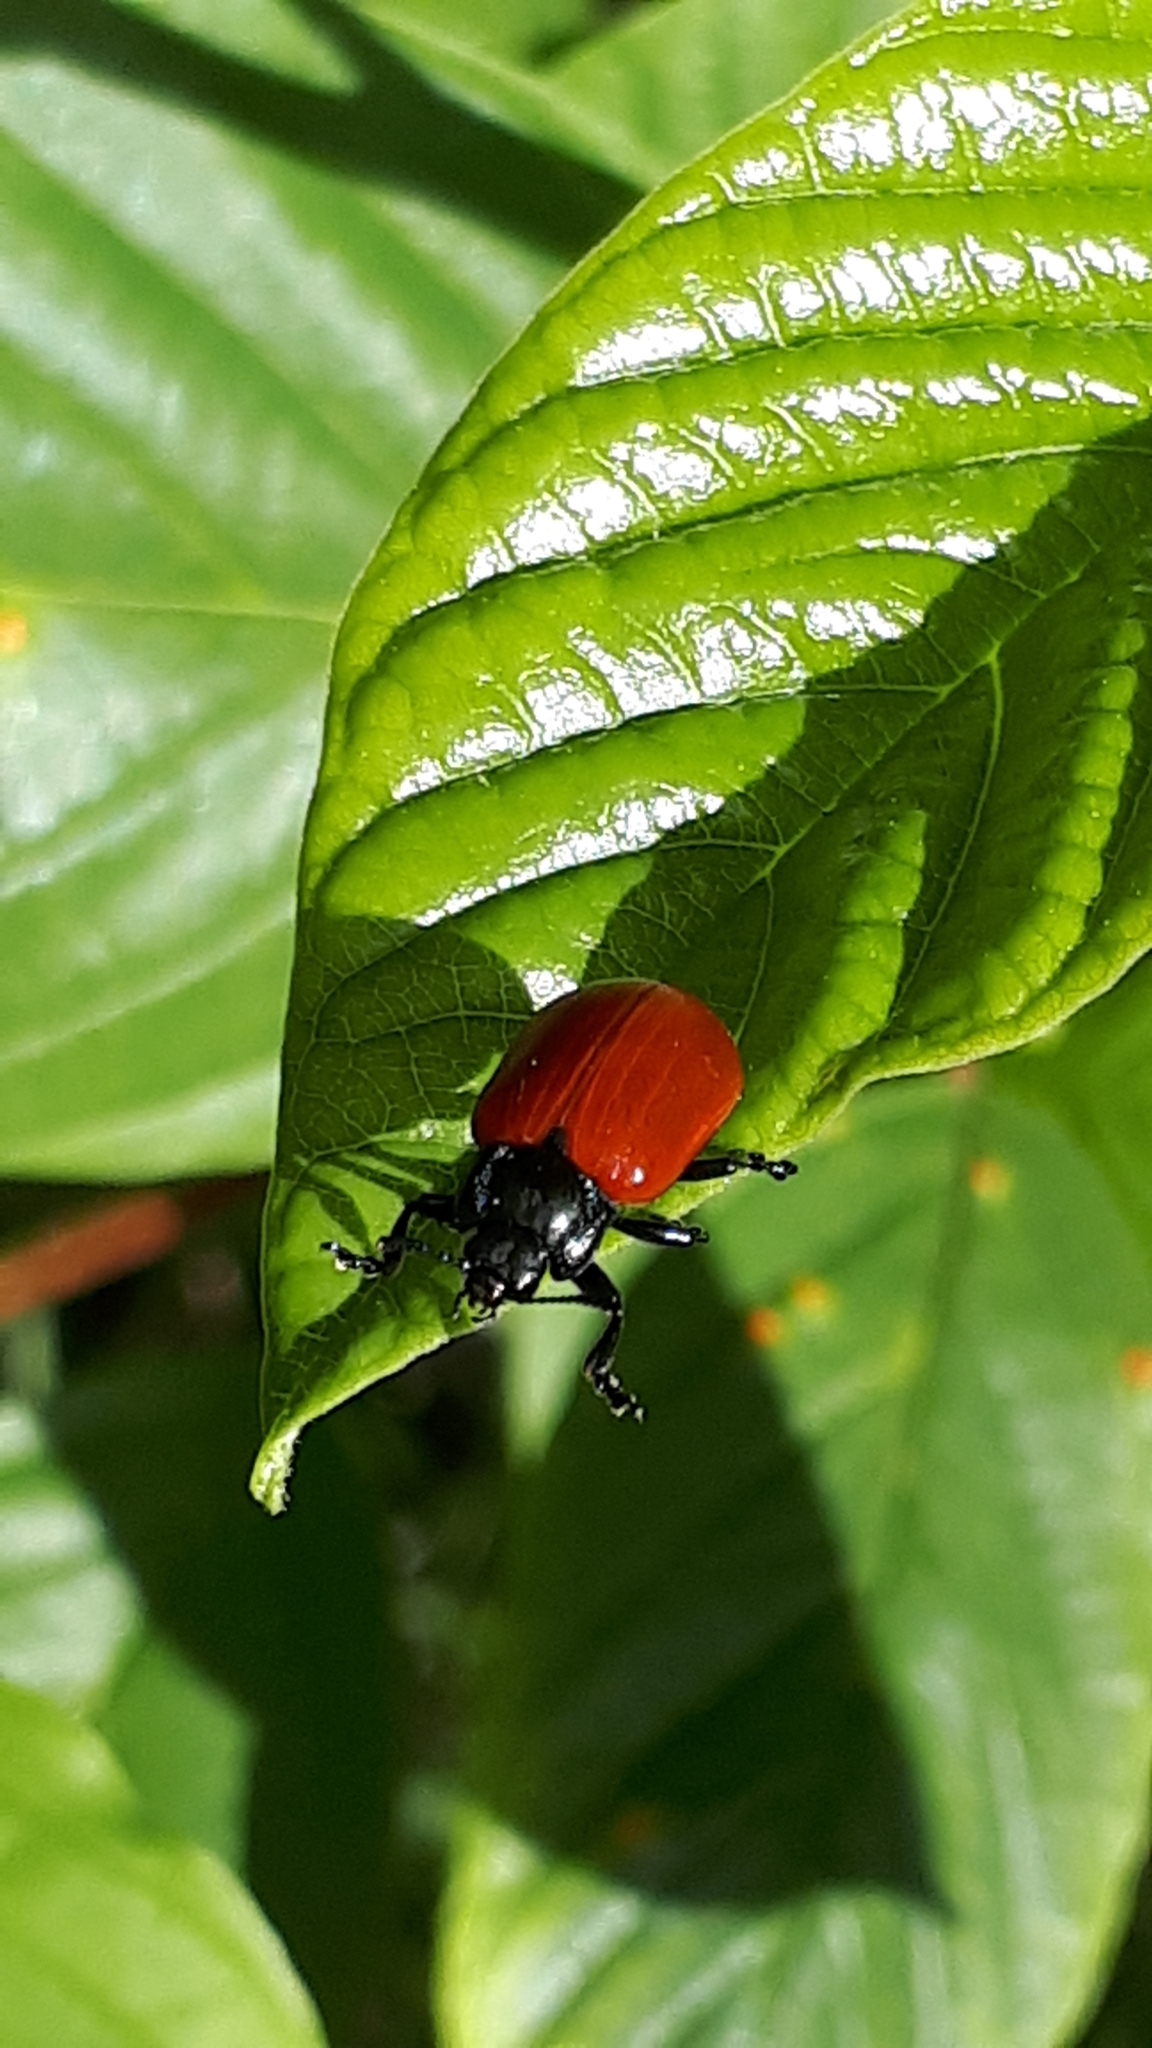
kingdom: Animalia
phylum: Arthropoda
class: Insecta
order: Coleoptera
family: Chrysomelidae
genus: Chrysomela
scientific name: Chrysomela populi
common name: Red poplar leaf beetle
